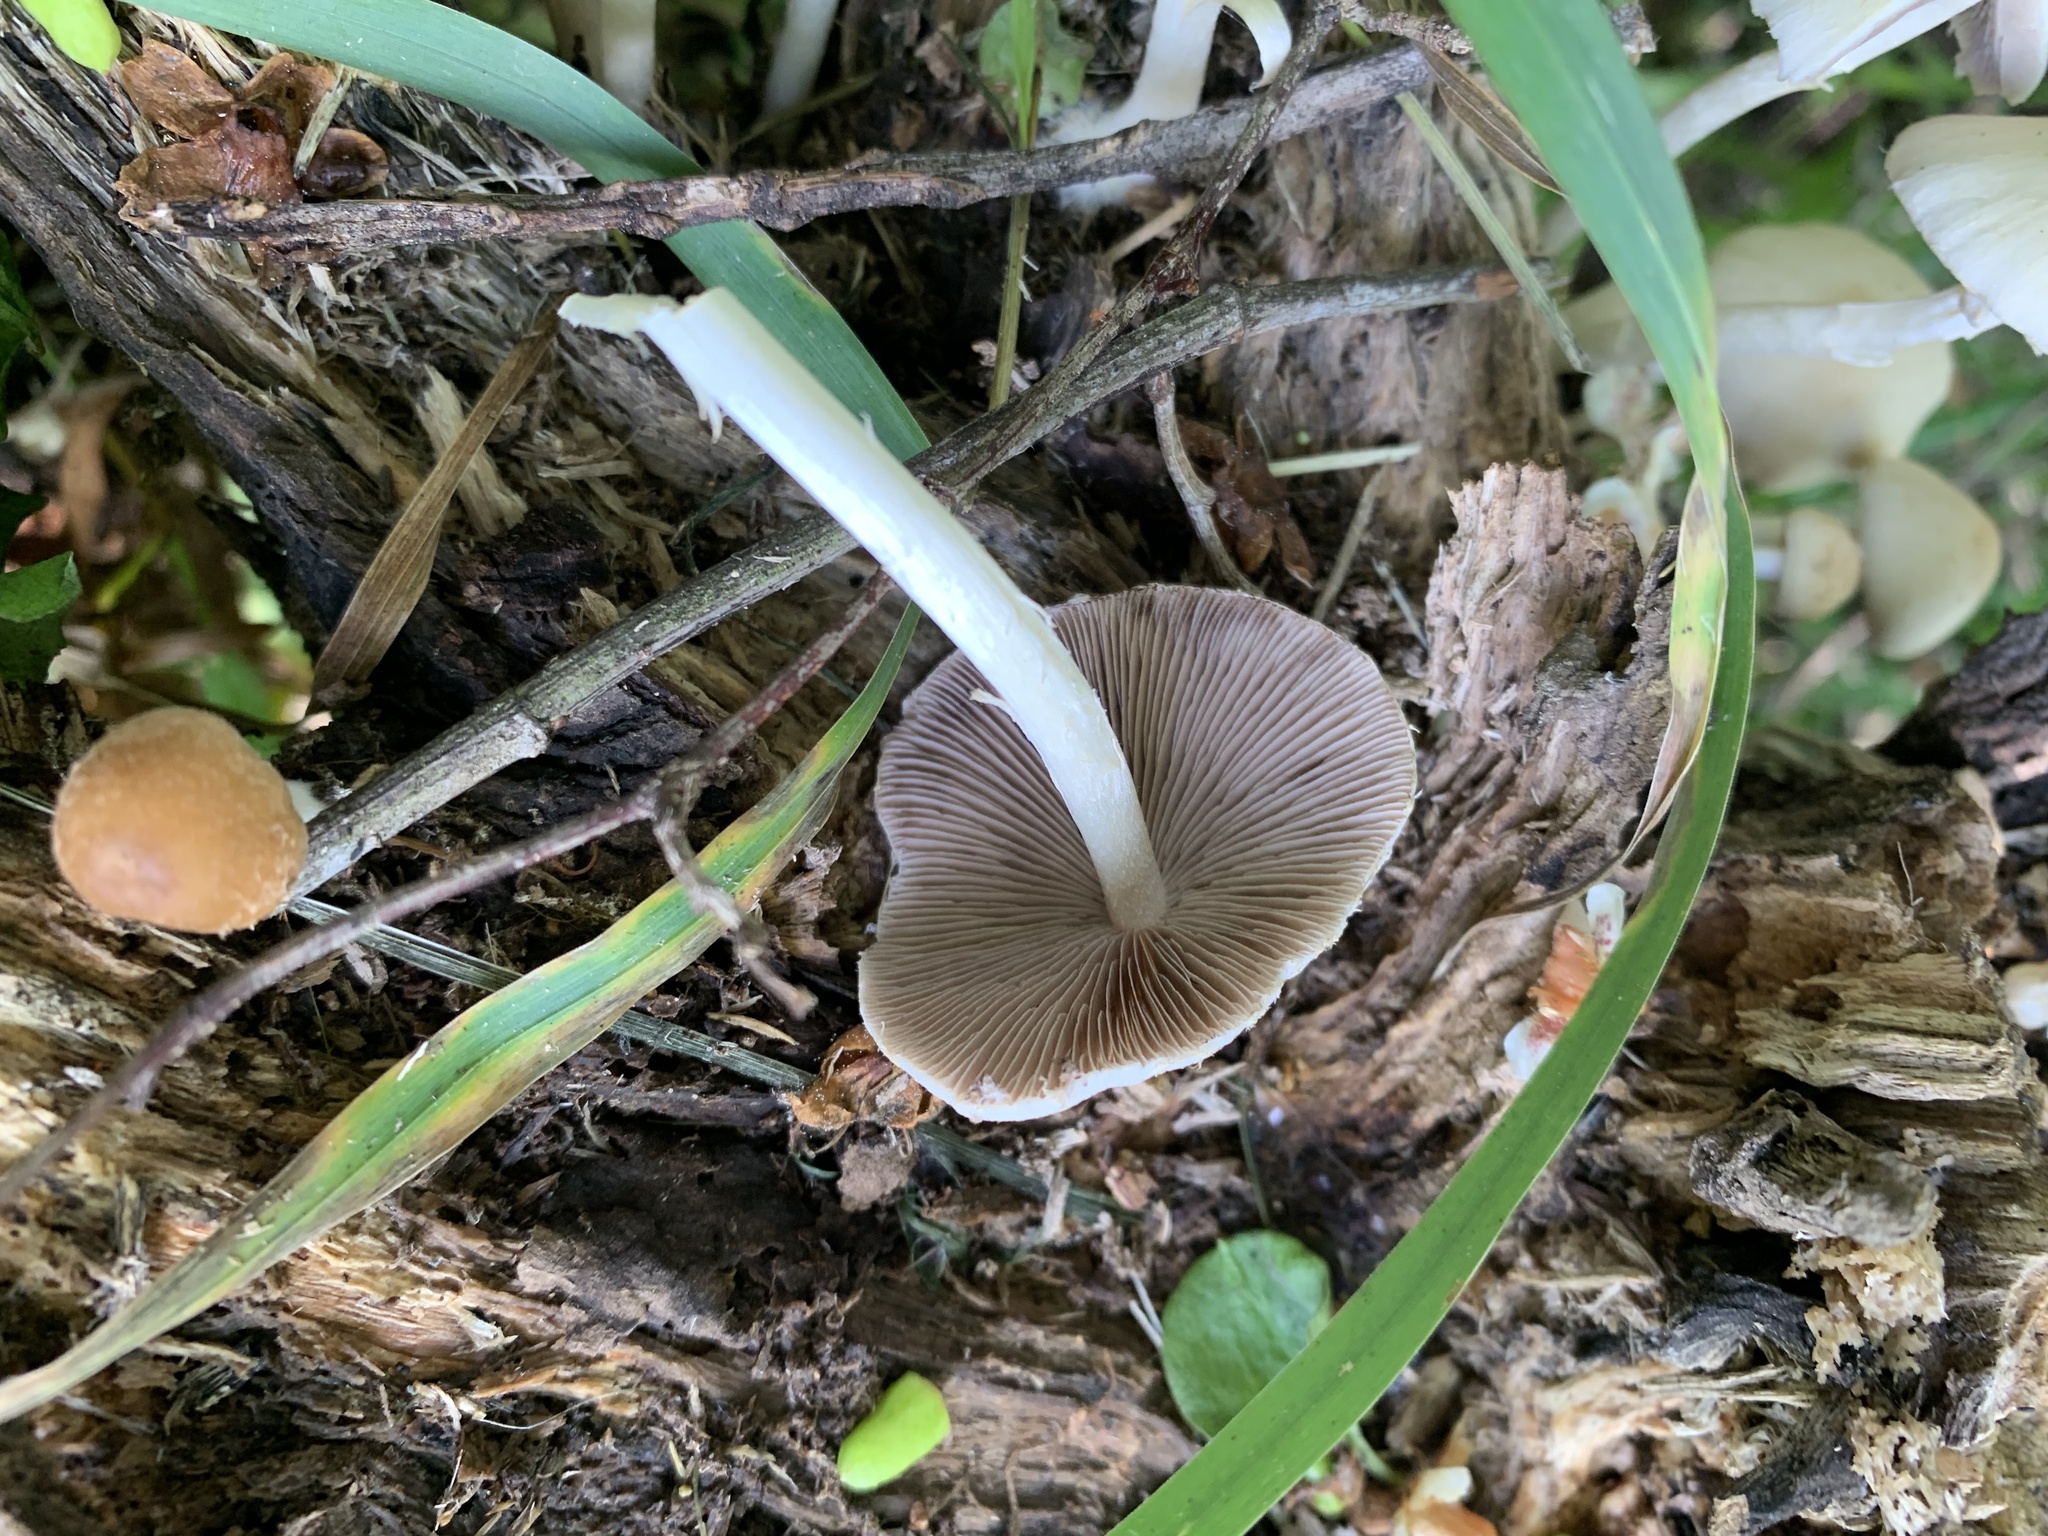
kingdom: Fungi
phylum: Basidiomycota
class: Agaricomycetes
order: Agaricales
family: Psathyrellaceae
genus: Candolleomyces
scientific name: Candolleomyces candolleanus
